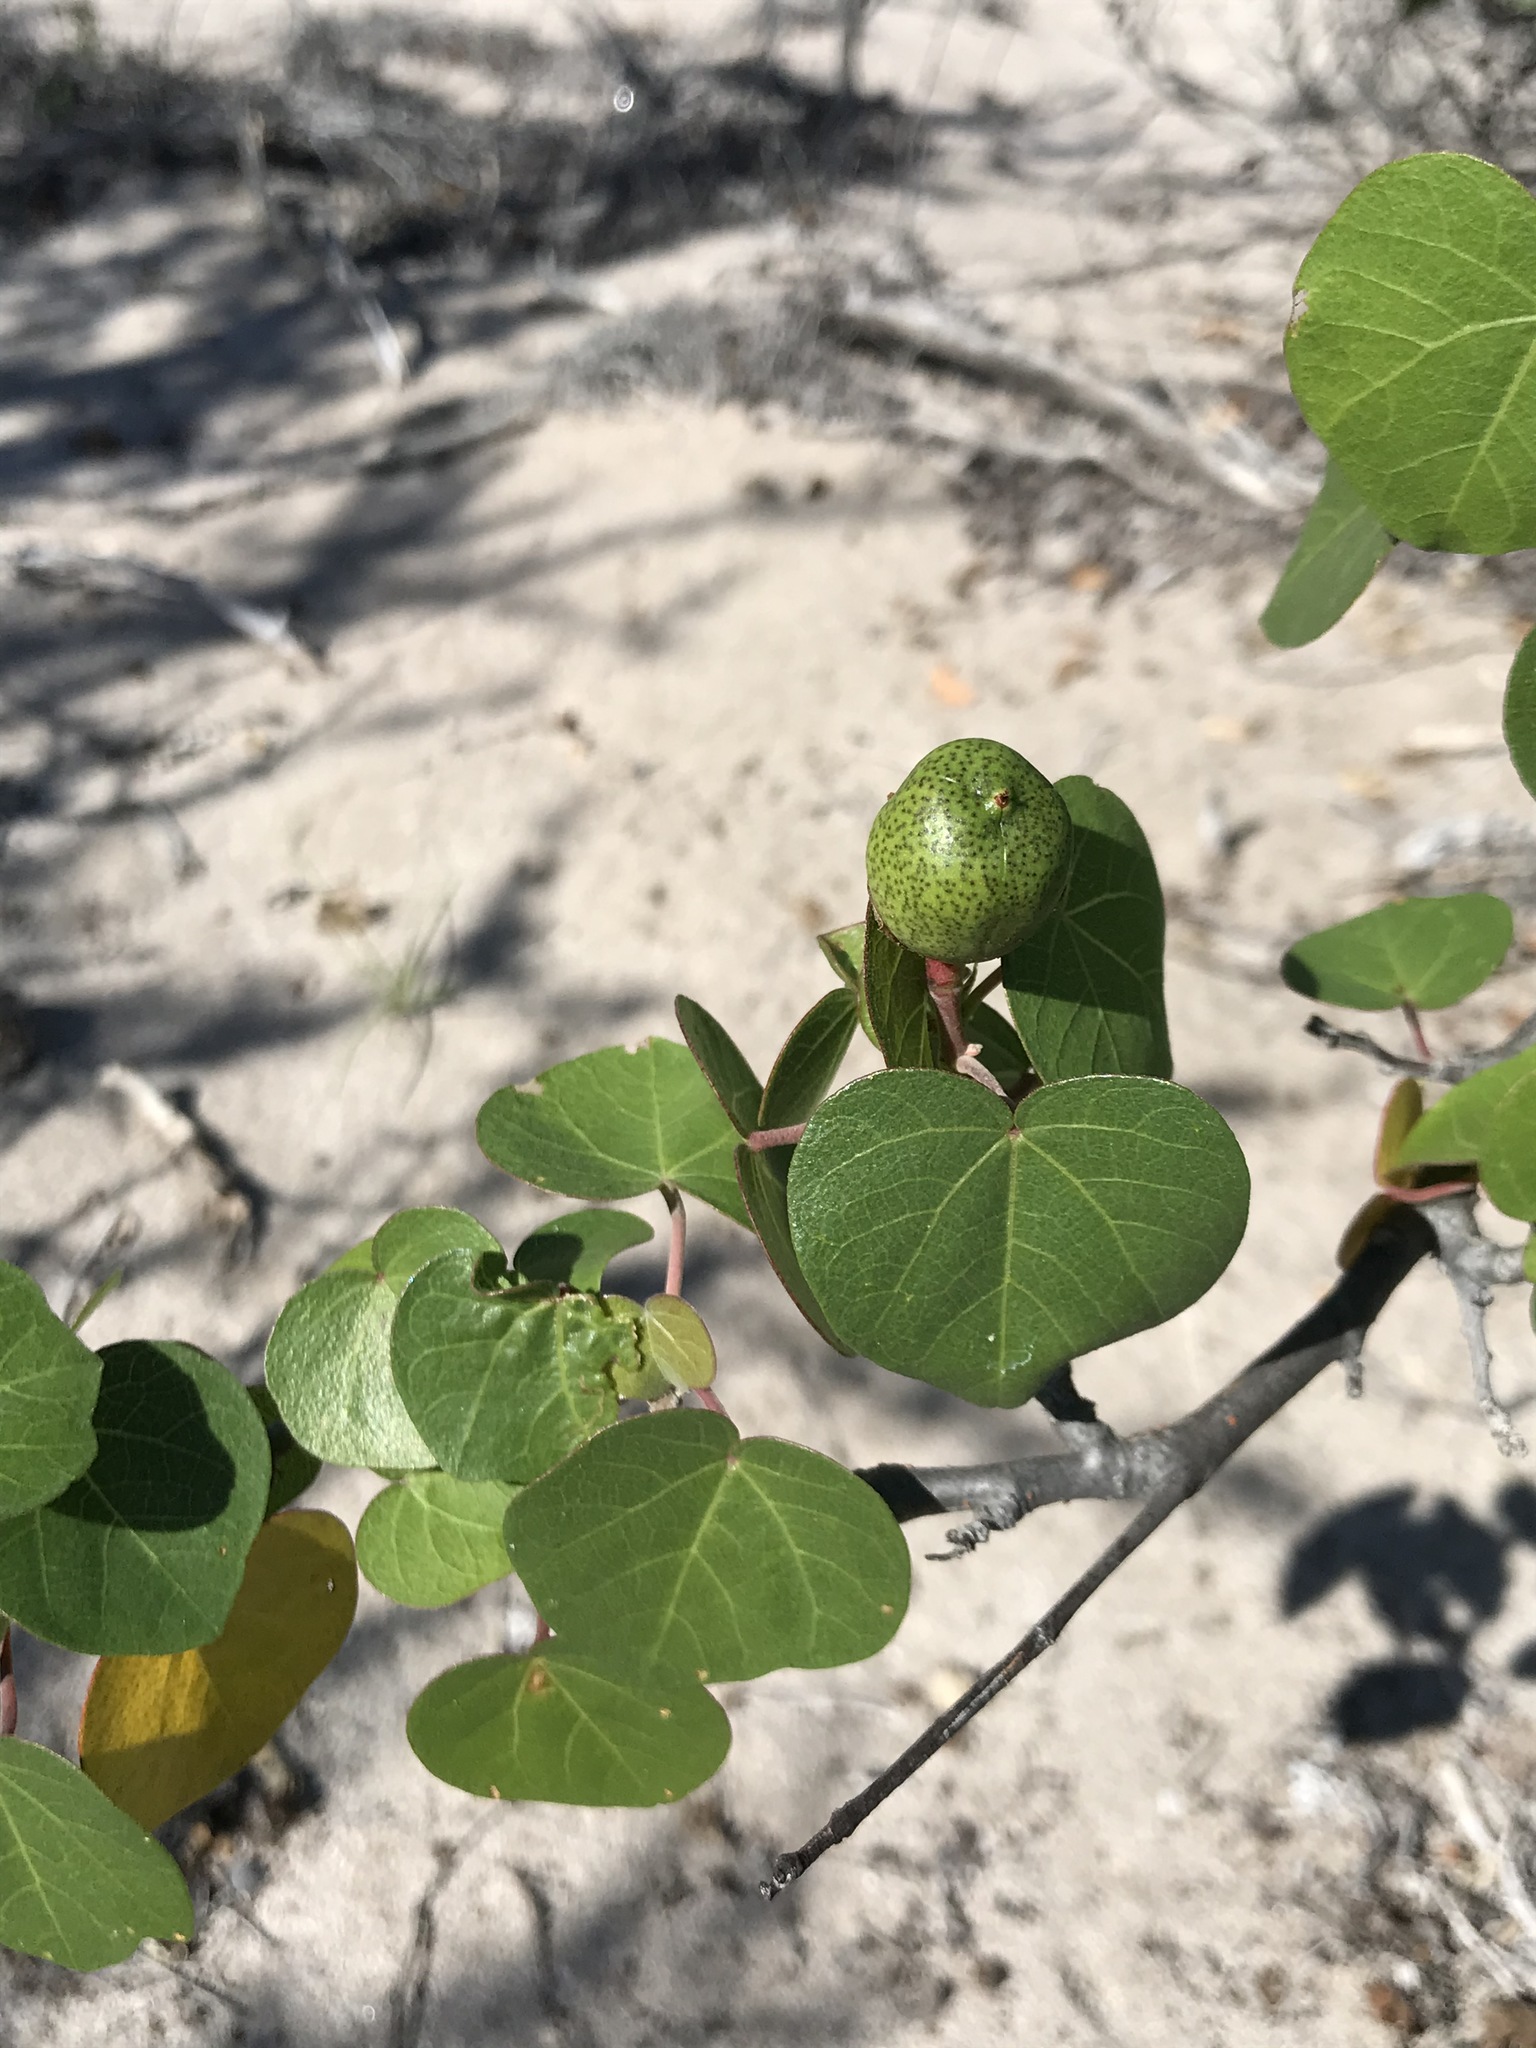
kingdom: Plantae
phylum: Tracheophyta
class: Magnoliopsida
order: Malvales
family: Malvaceae
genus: Gossypium
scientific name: Gossypium harknessii
